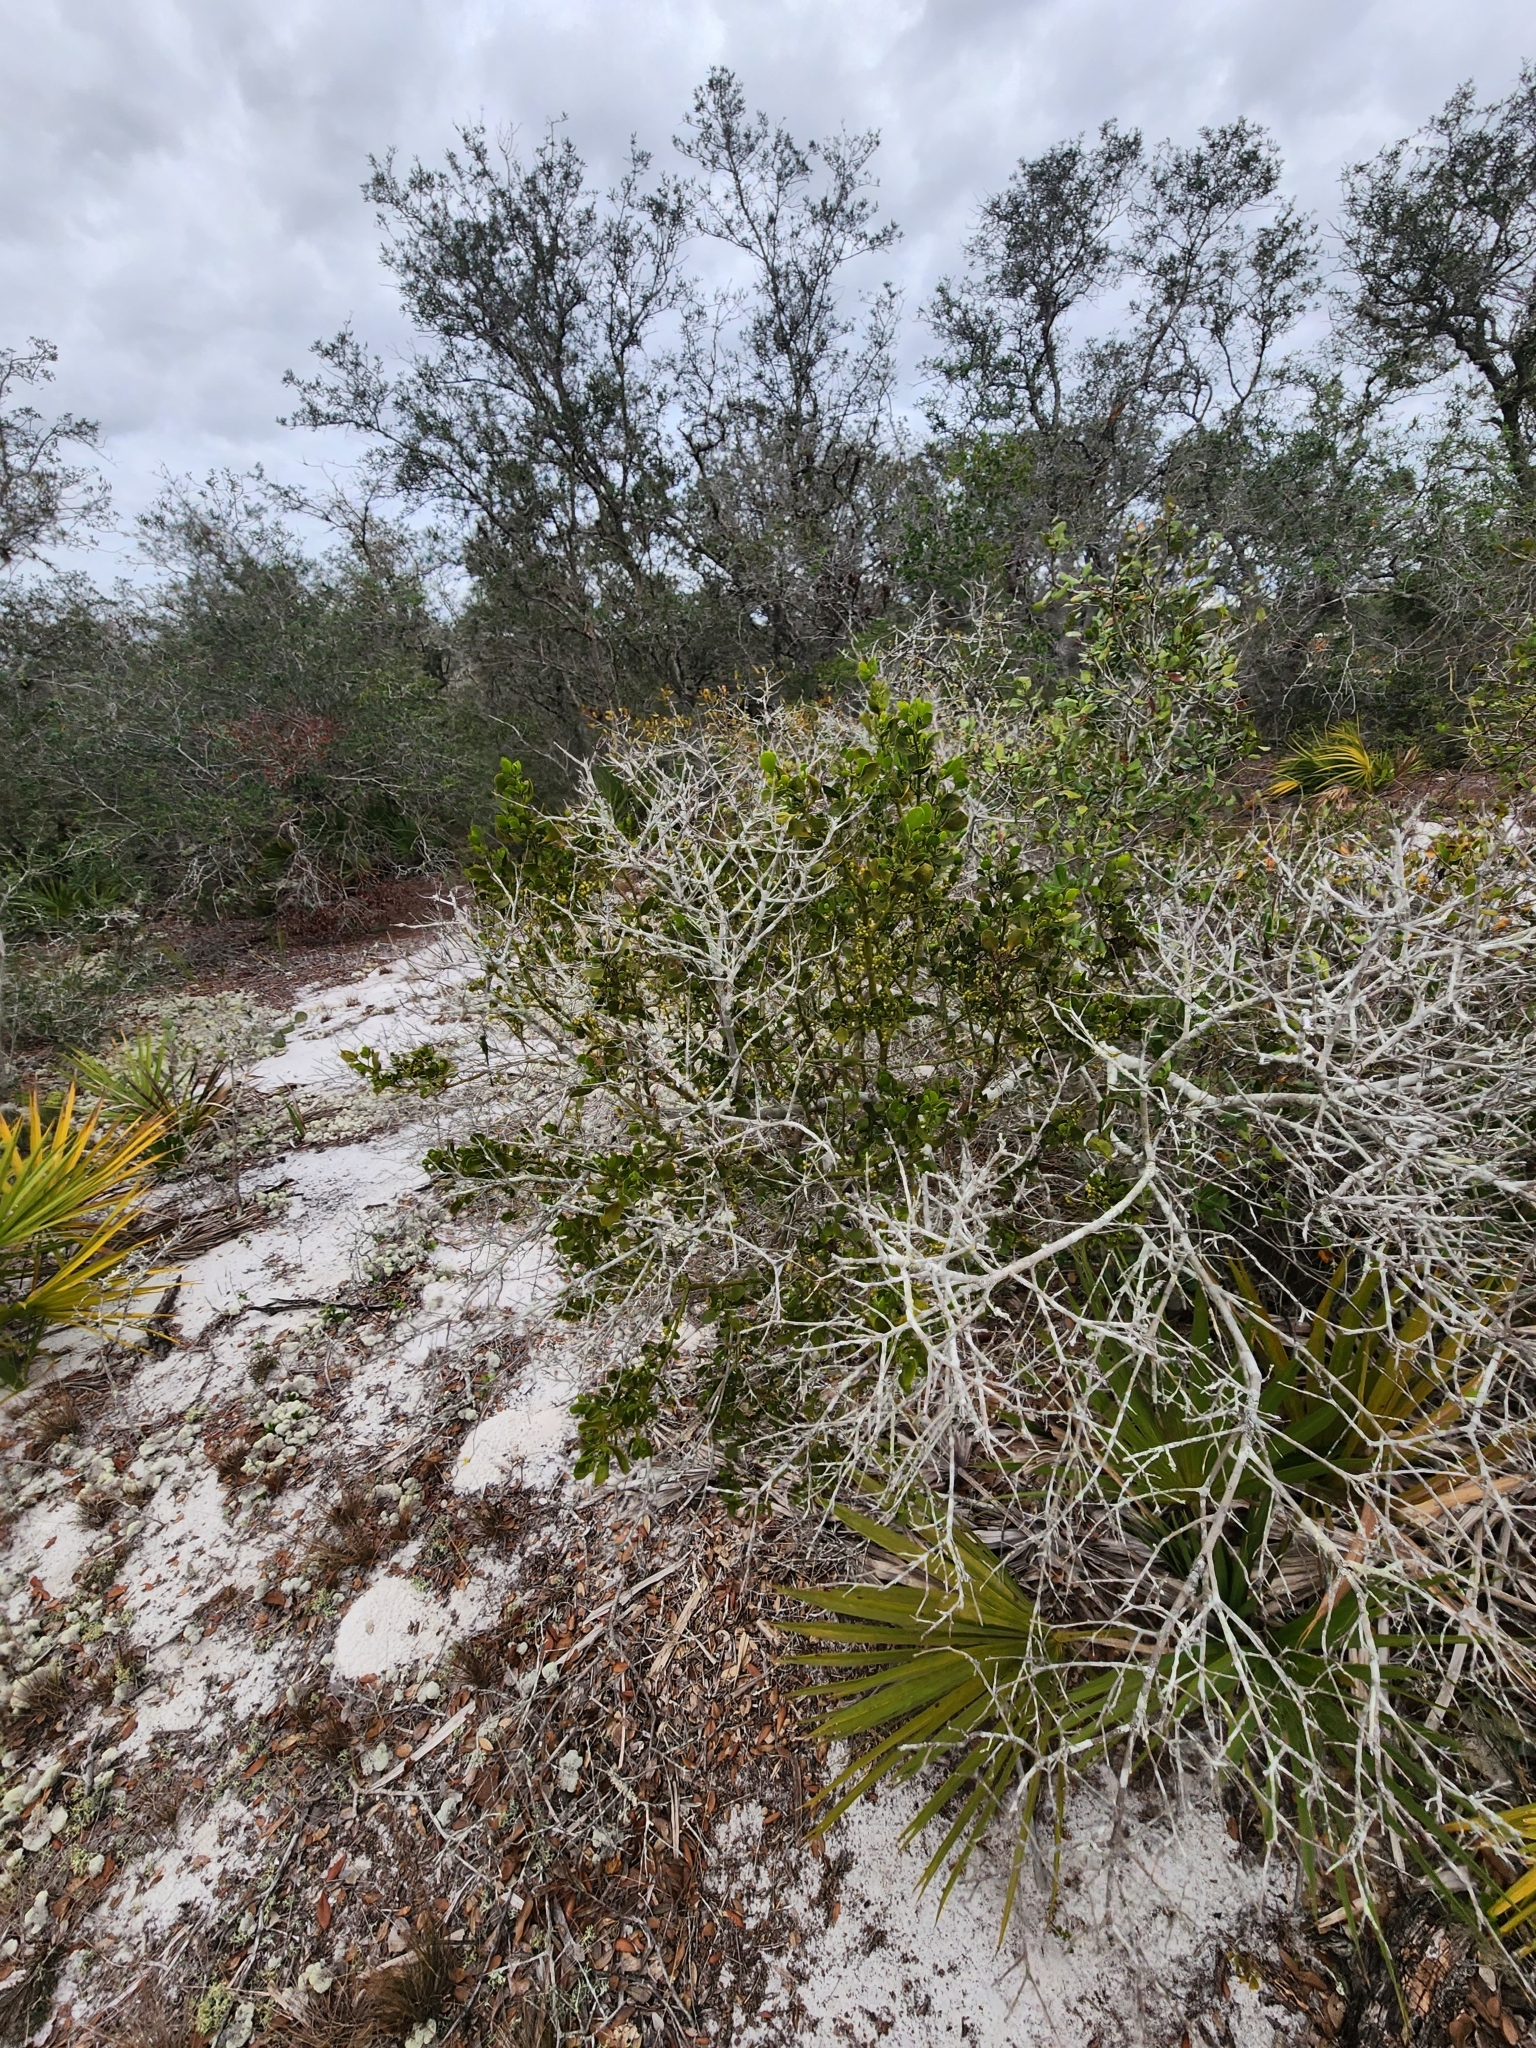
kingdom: Plantae
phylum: Tracheophyta
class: Magnoliopsida
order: Santalales
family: Viscaceae
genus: Phoradendron
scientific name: Phoradendron leucarpum
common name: Pacific mistletoe
